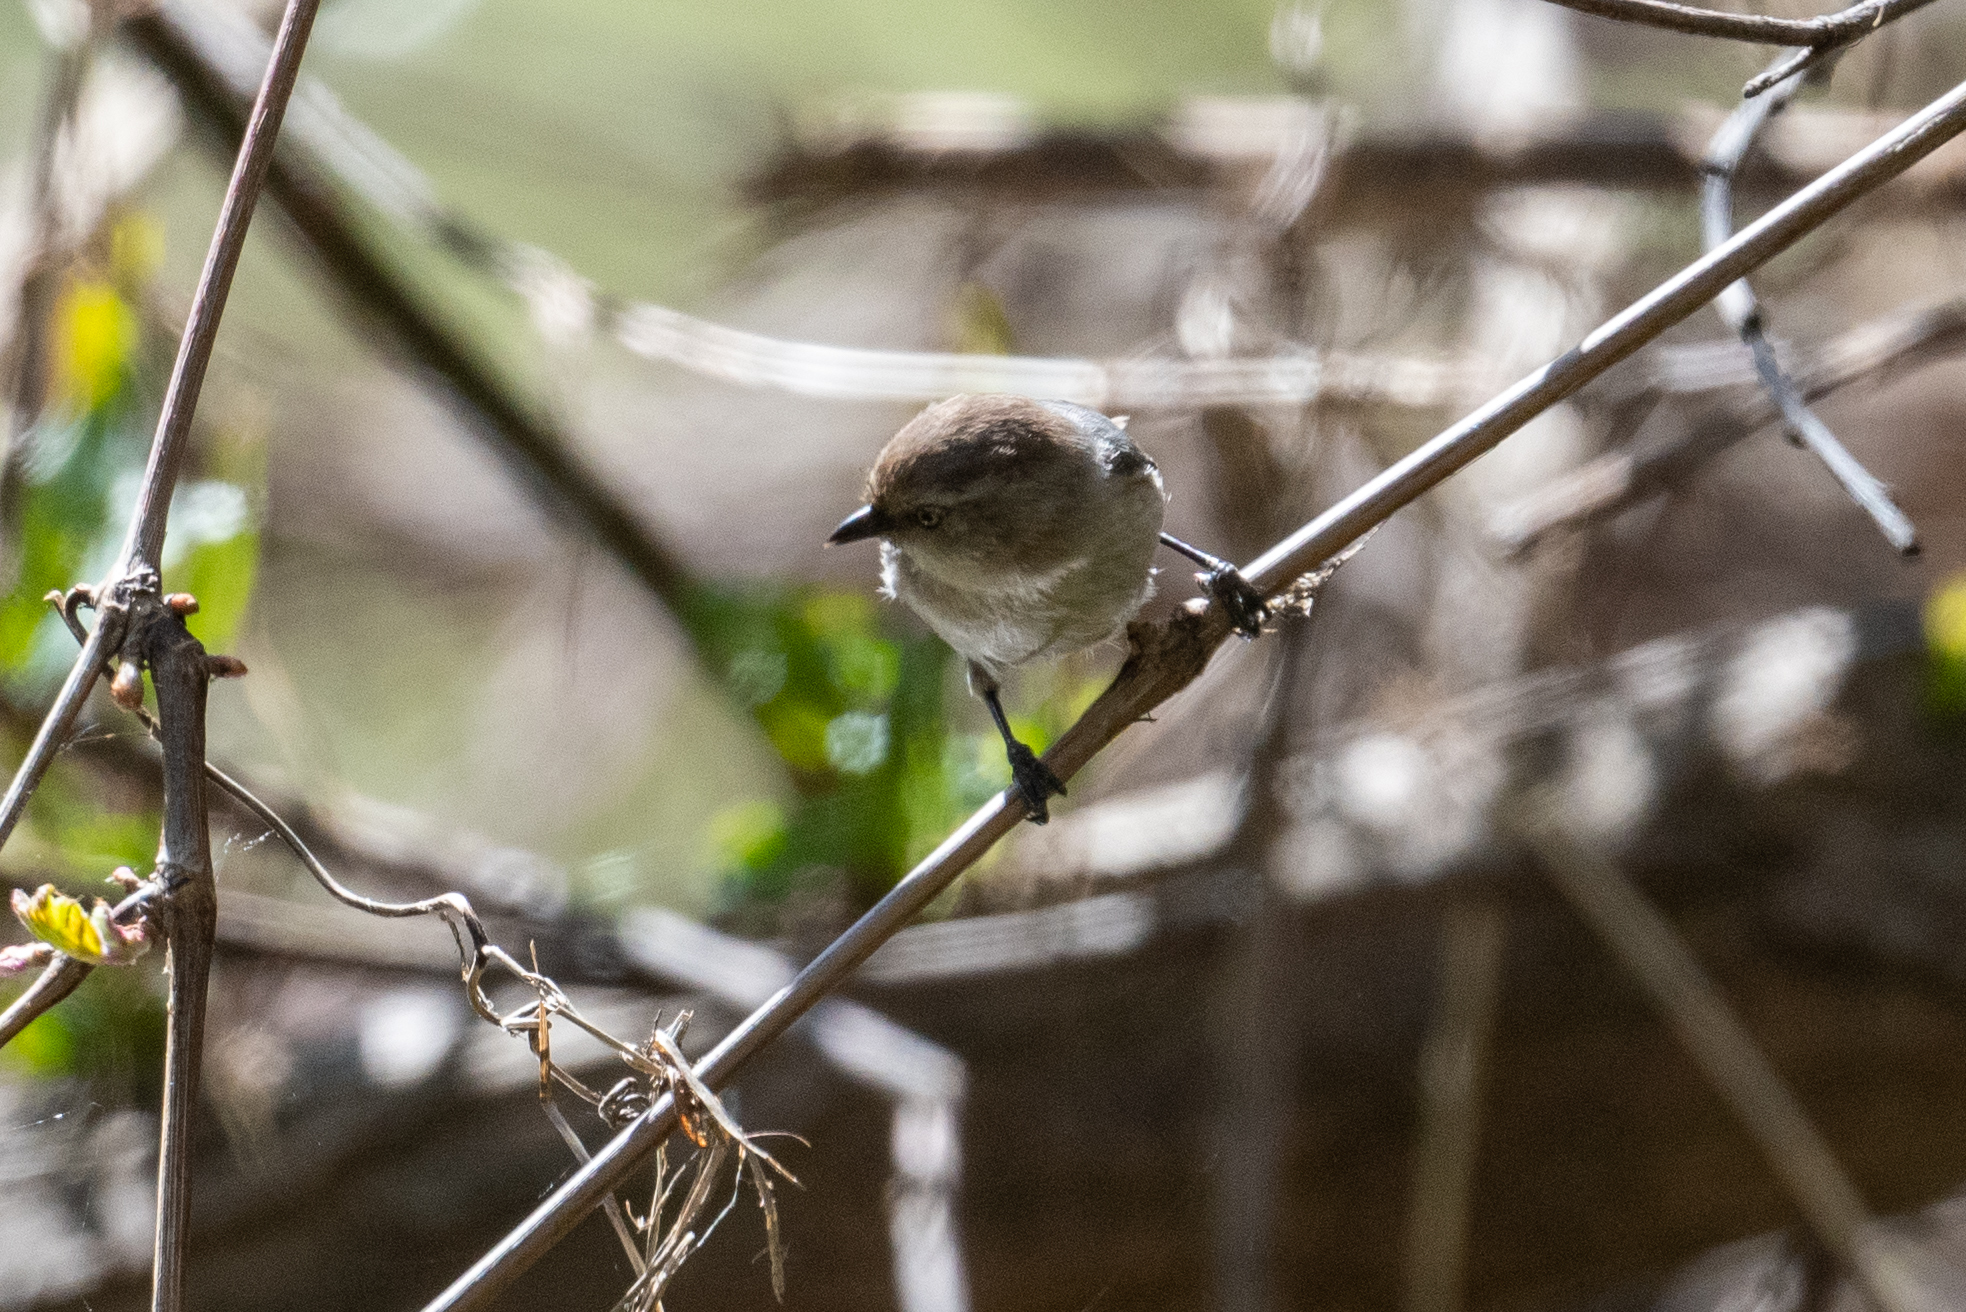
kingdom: Animalia
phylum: Chordata
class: Aves
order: Passeriformes
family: Aegithalidae
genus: Psaltriparus
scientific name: Psaltriparus minimus
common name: American bushtit
